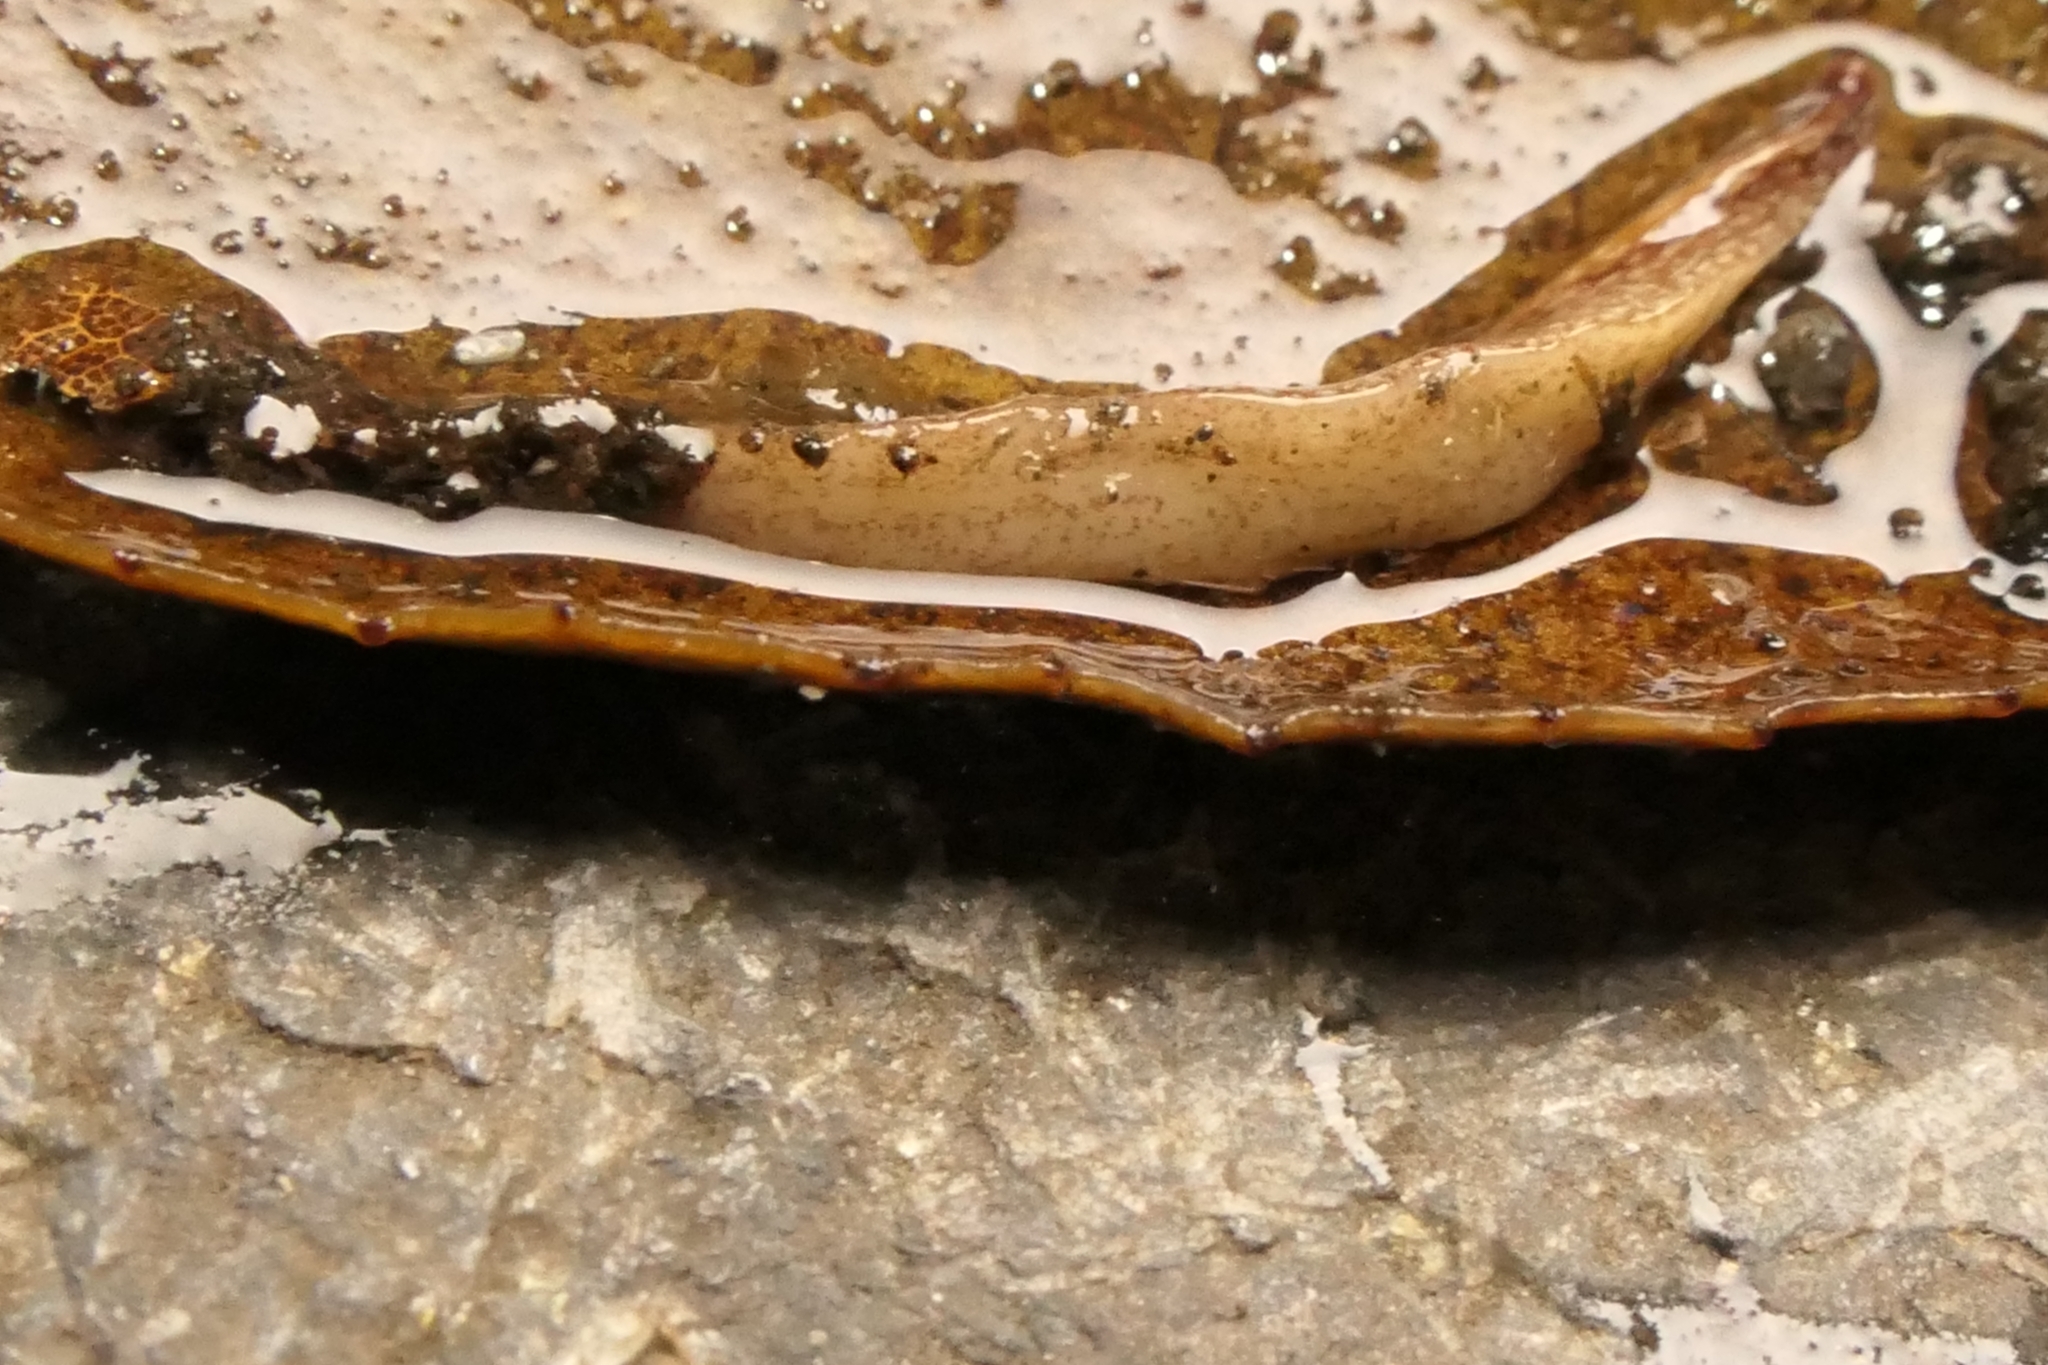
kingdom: Animalia
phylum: Platyhelminthes
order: Tricladida
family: Geoplanidae
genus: Australopacifica
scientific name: Australopacifica spectabilis
